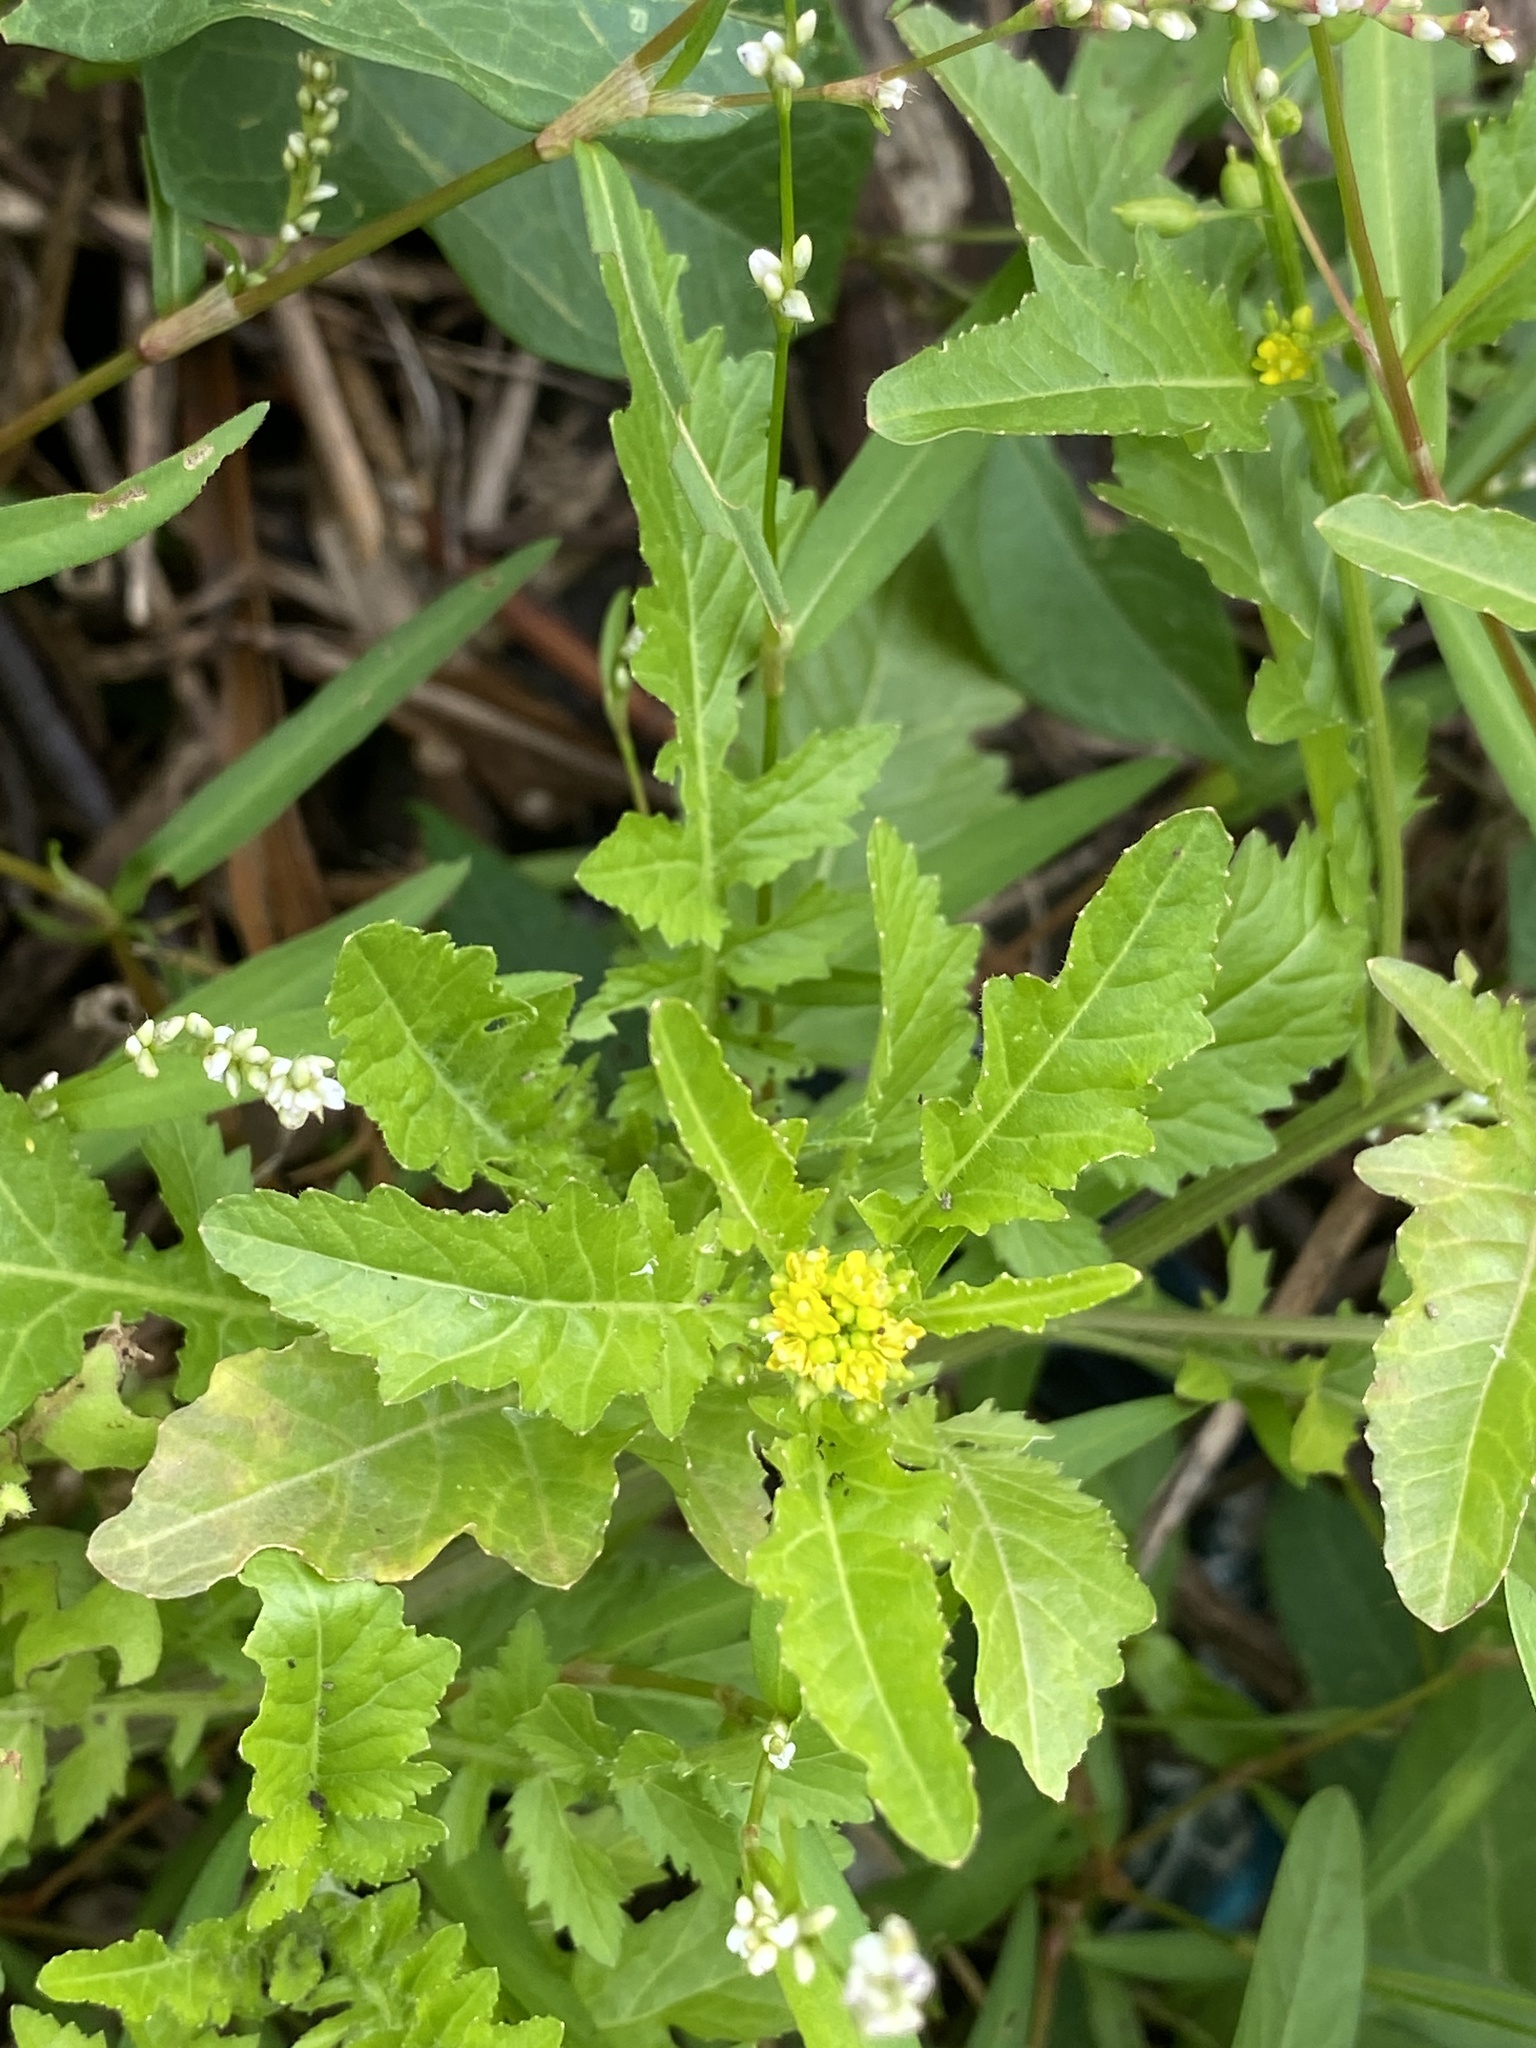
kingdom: Plantae
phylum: Tracheophyta
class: Magnoliopsida
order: Brassicales
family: Brassicaceae
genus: Rorippa
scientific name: Rorippa palustris
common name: Marsh yellow-cress
